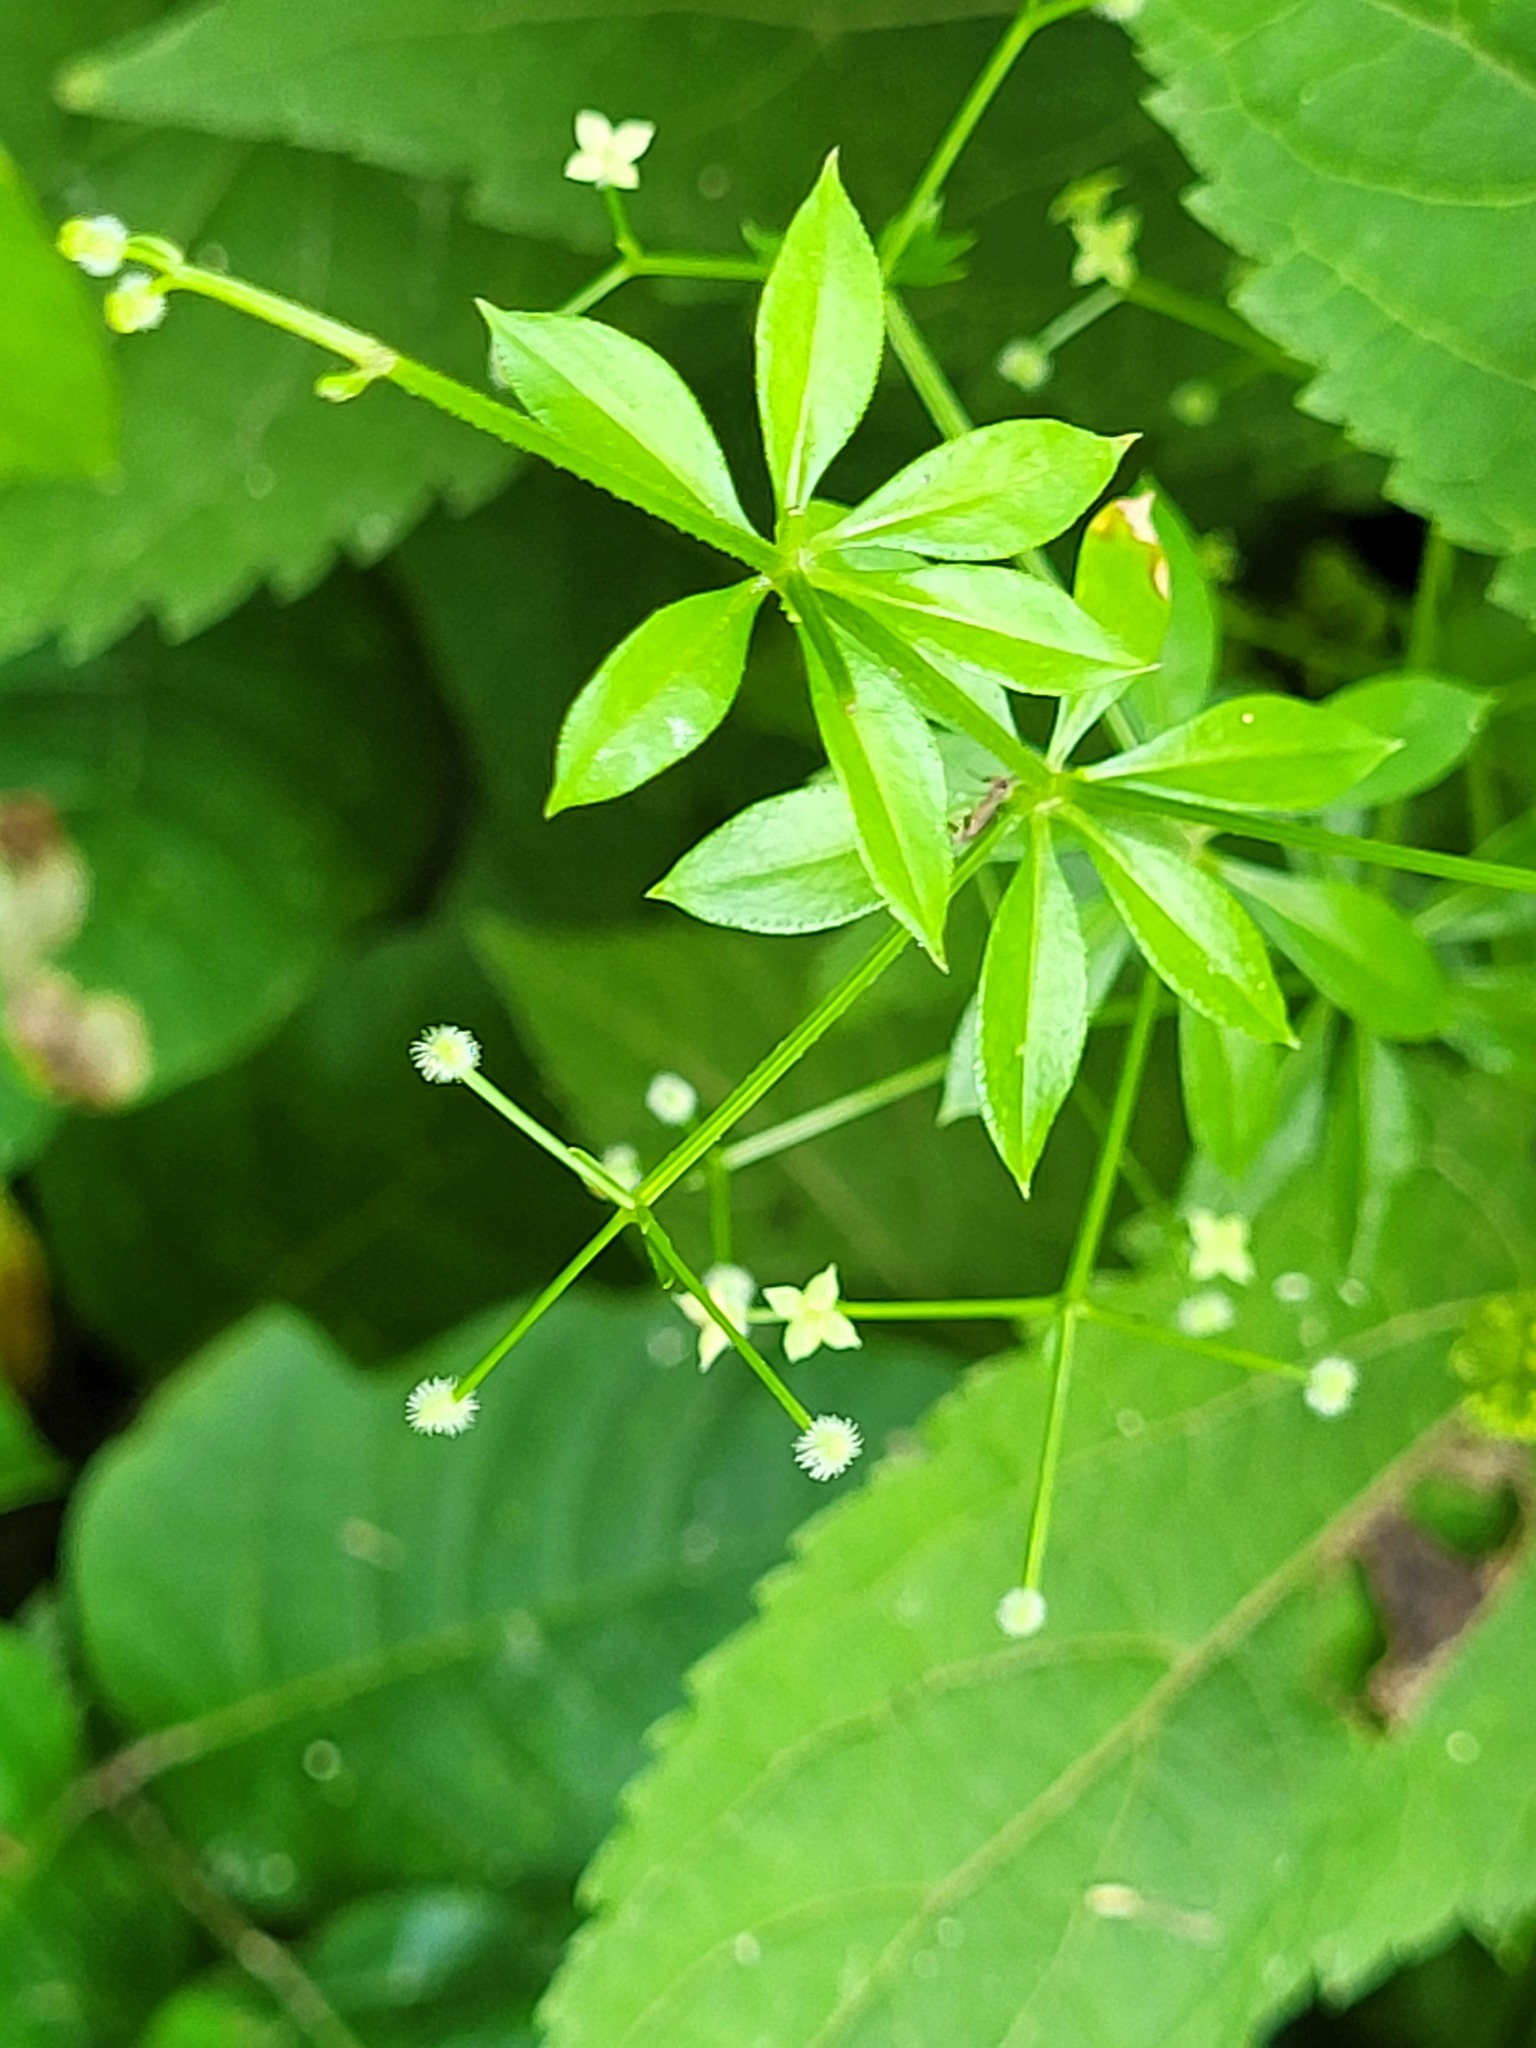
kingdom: Plantae
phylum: Tracheophyta
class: Magnoliopsida
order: Gentianales
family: Rubiaceae
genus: Galium
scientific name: Galium triflorum
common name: Fragrant bedstraw
